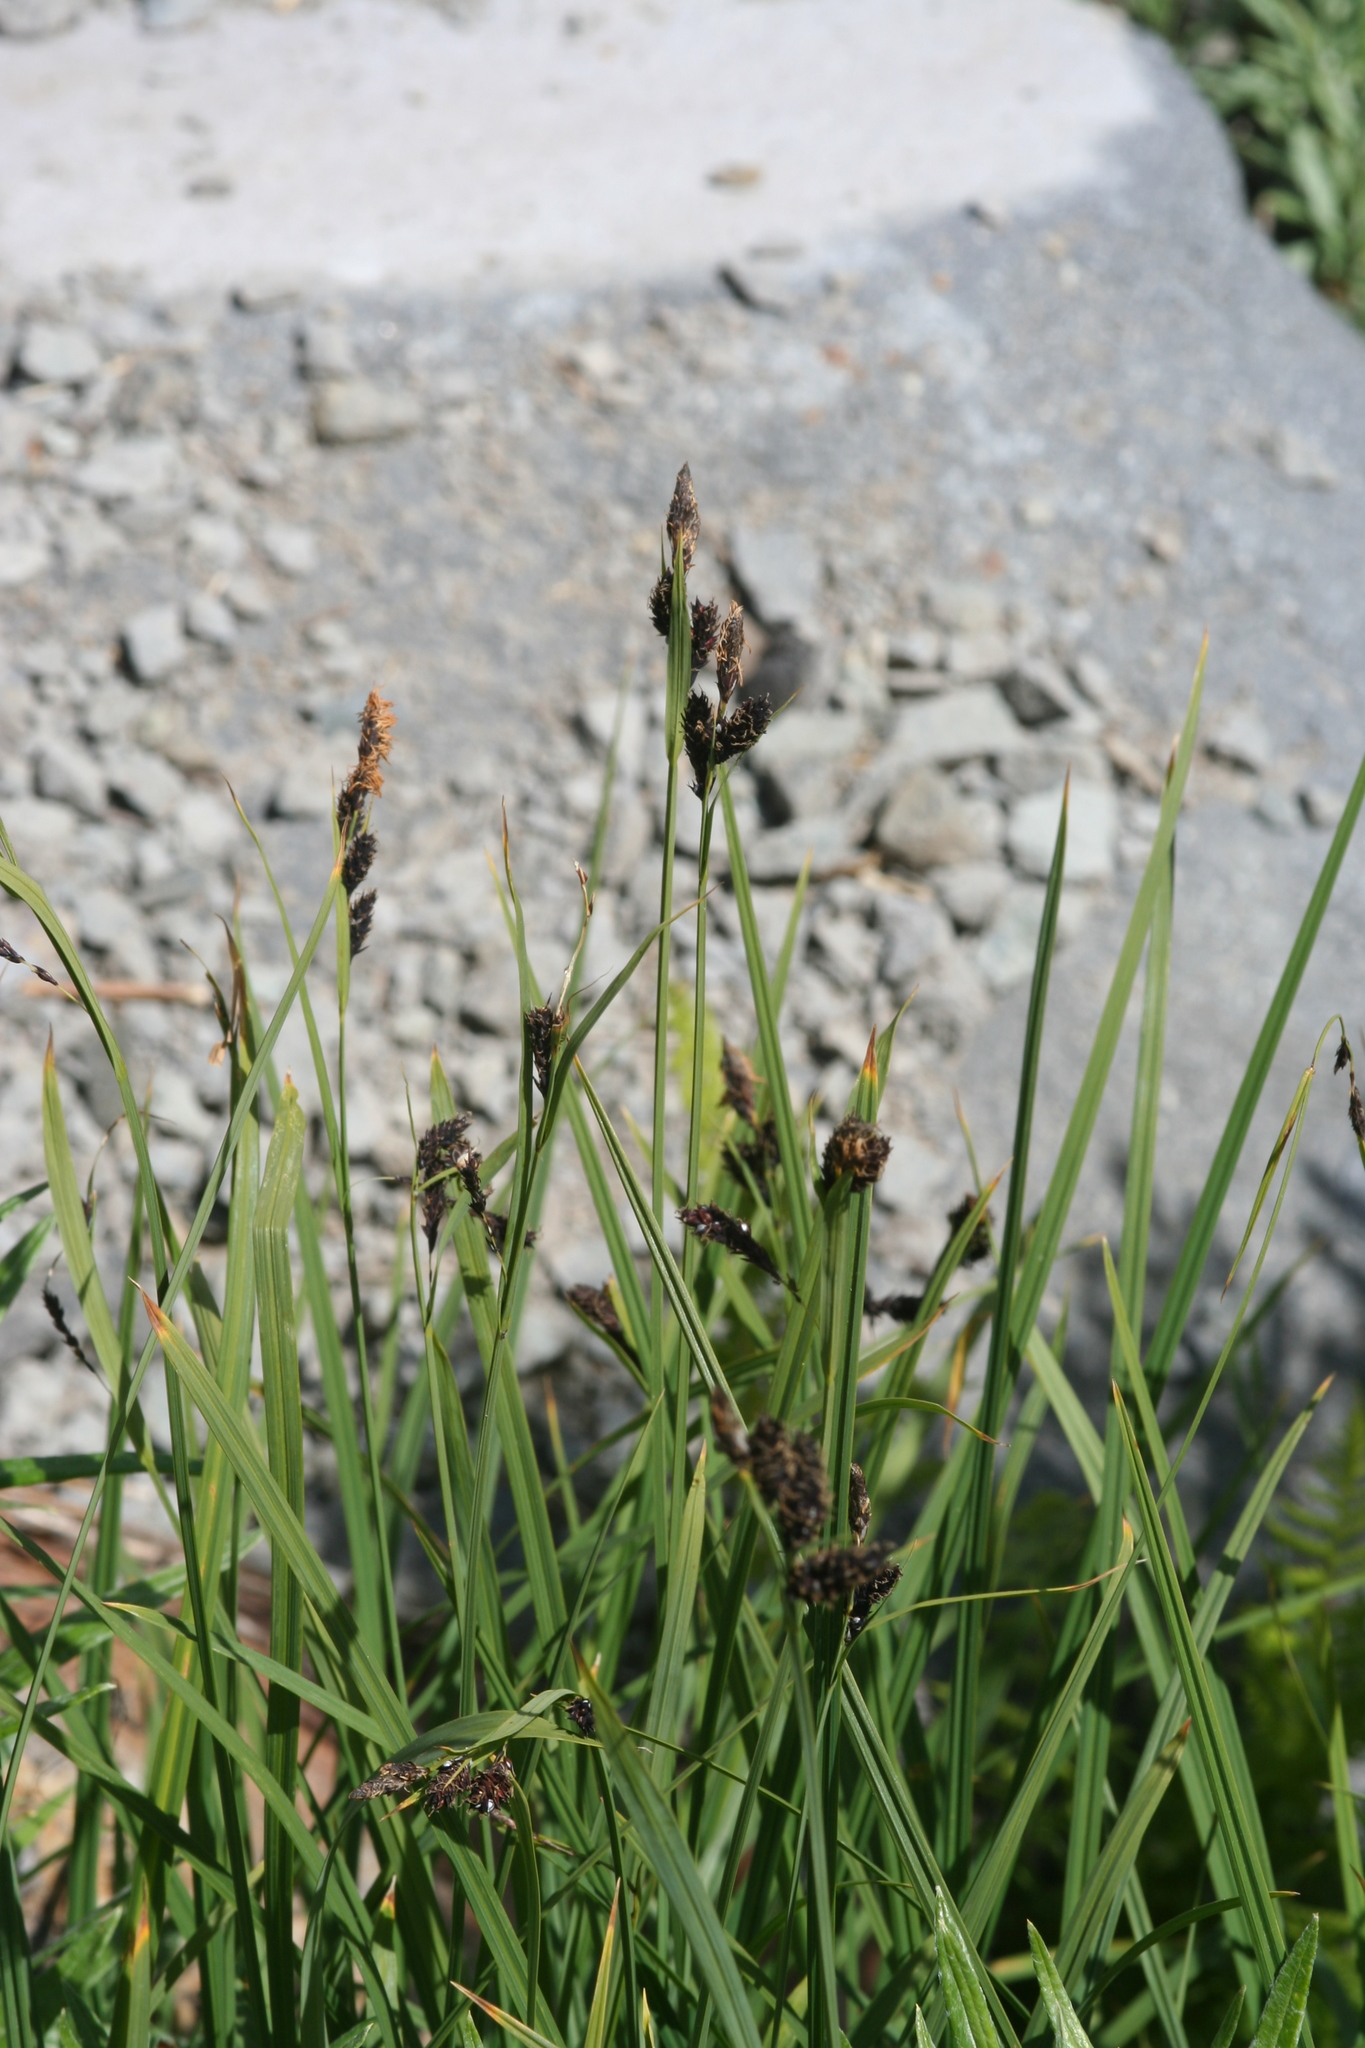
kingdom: Plantae
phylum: Tracheophyta
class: Liliopsida
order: Poales
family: Cyperaceae
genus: Carex
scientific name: Carex spectabilis
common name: Northwestern showy sedge
